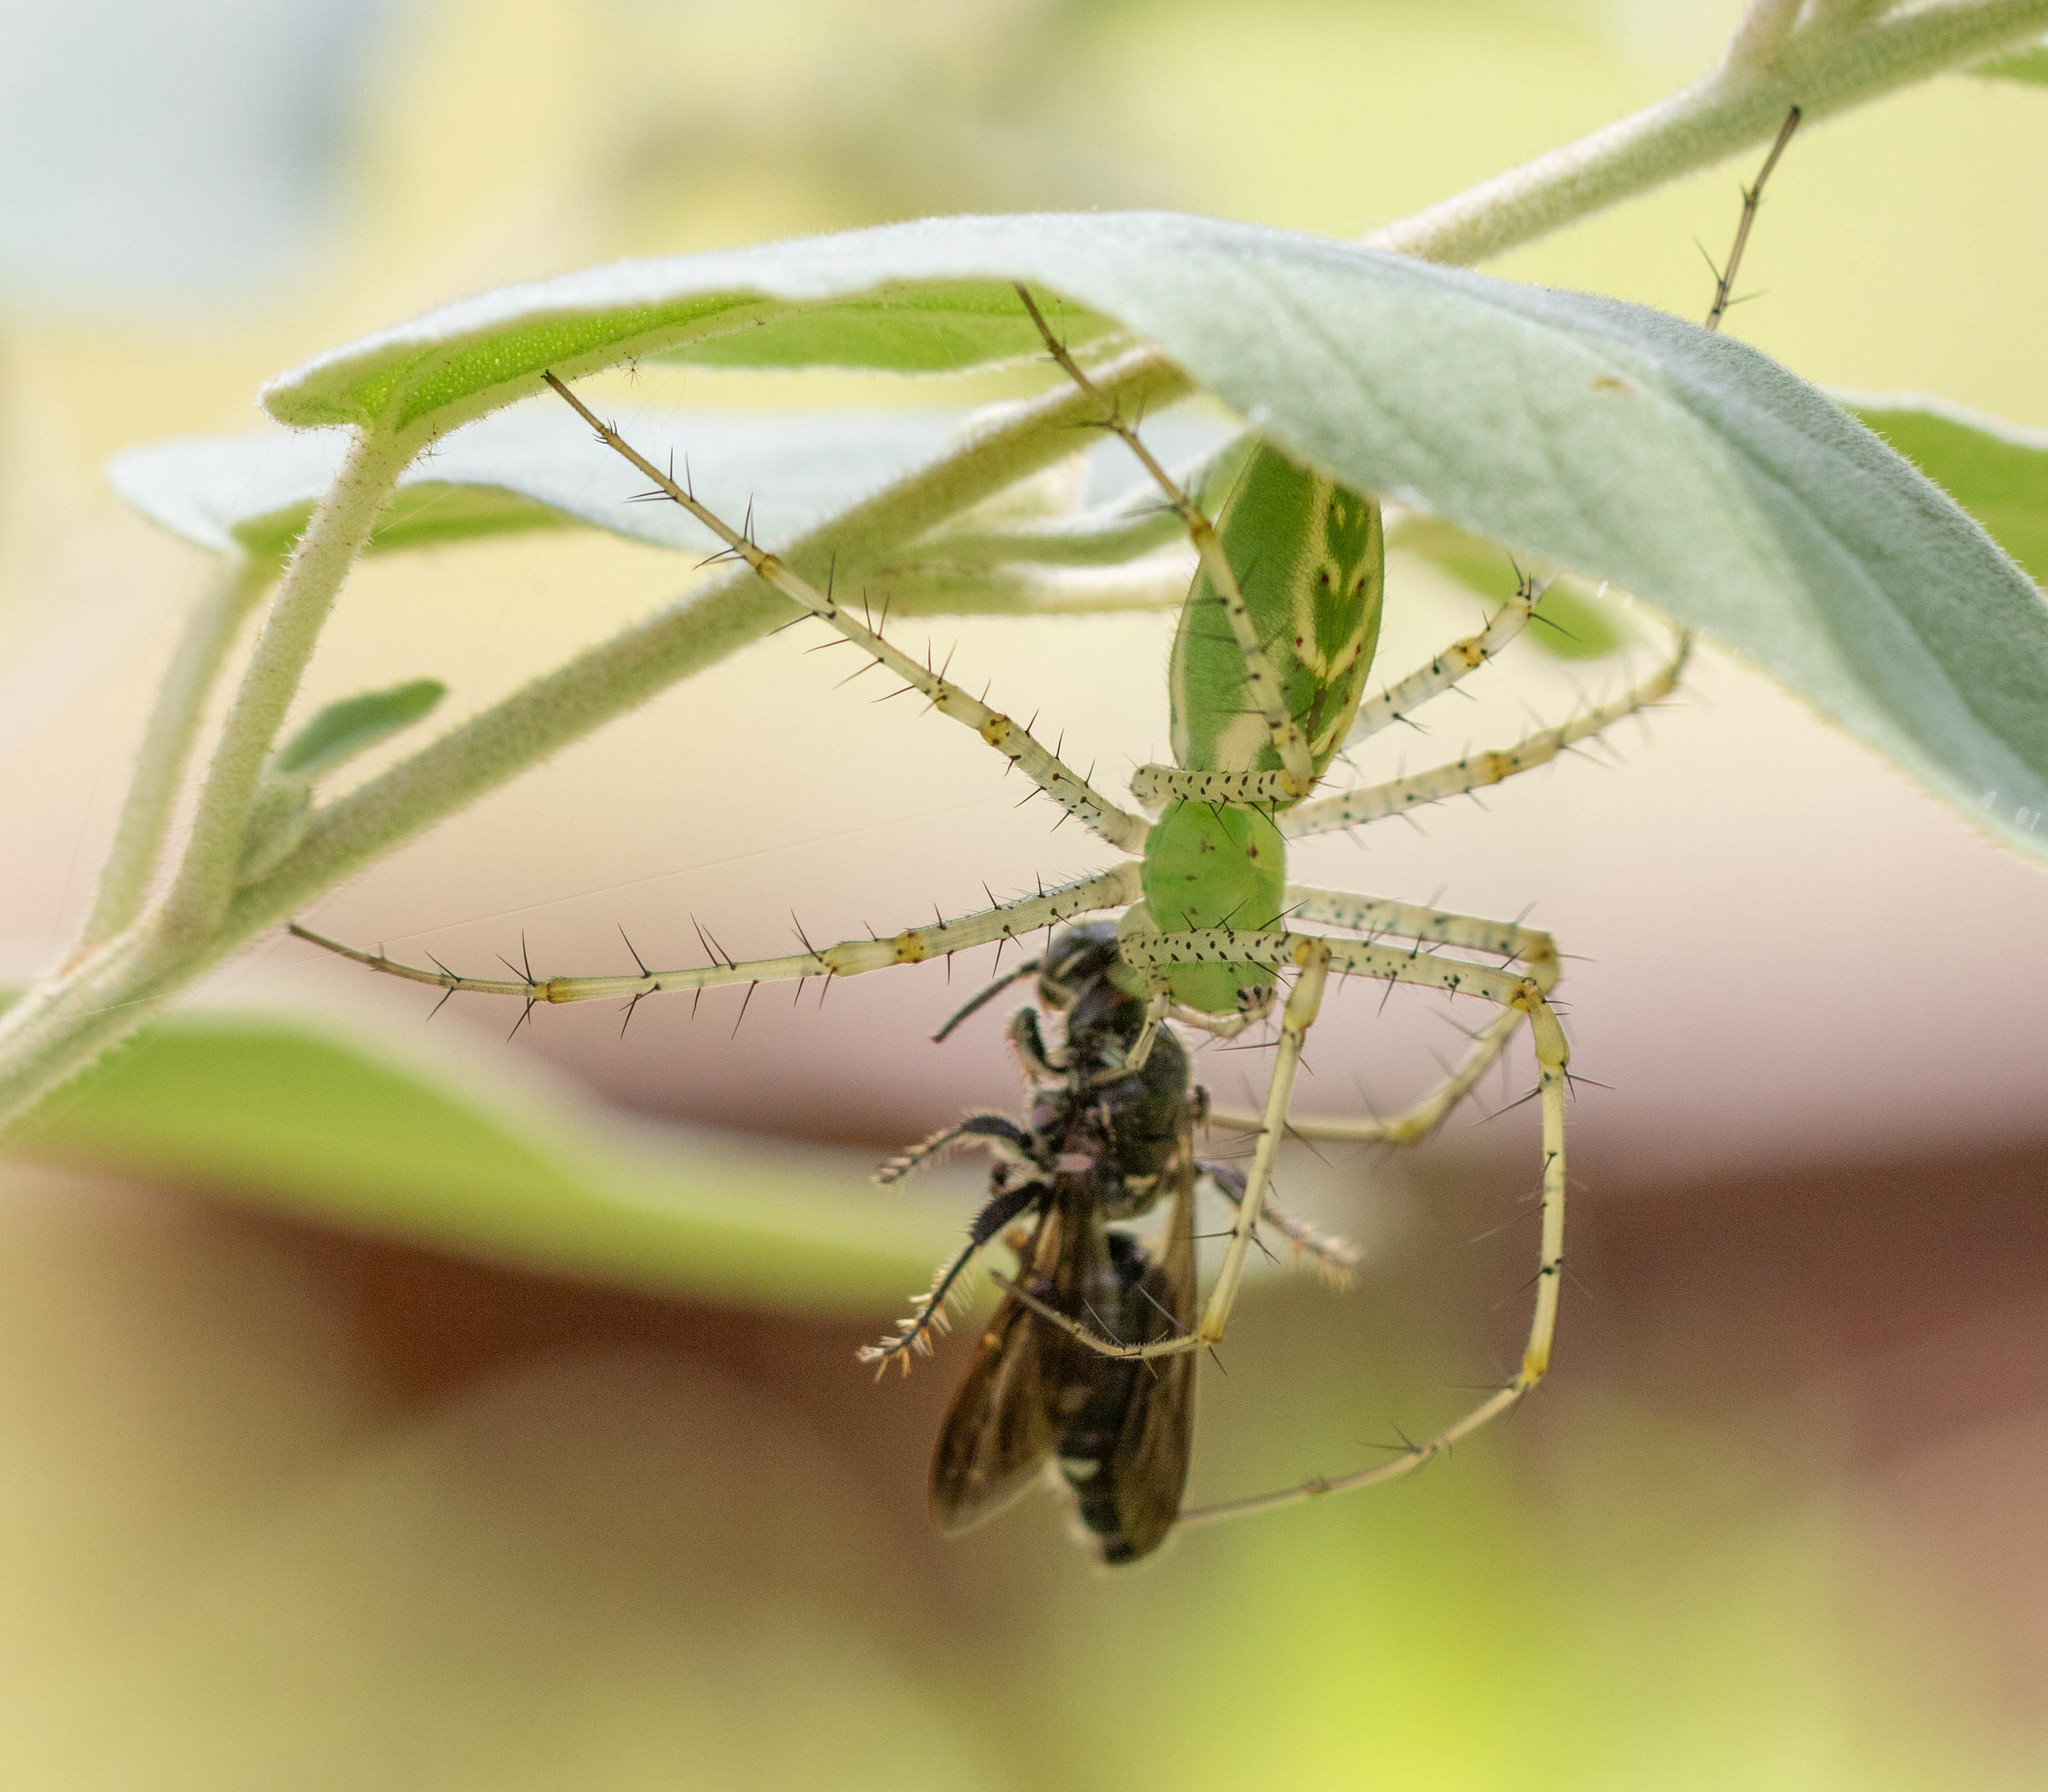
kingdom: Animalia
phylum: Arthropoda
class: Arachnida
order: Araneae
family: Oxyopidae
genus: Peucetia
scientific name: Peucetia viridans
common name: Lynx spiders
